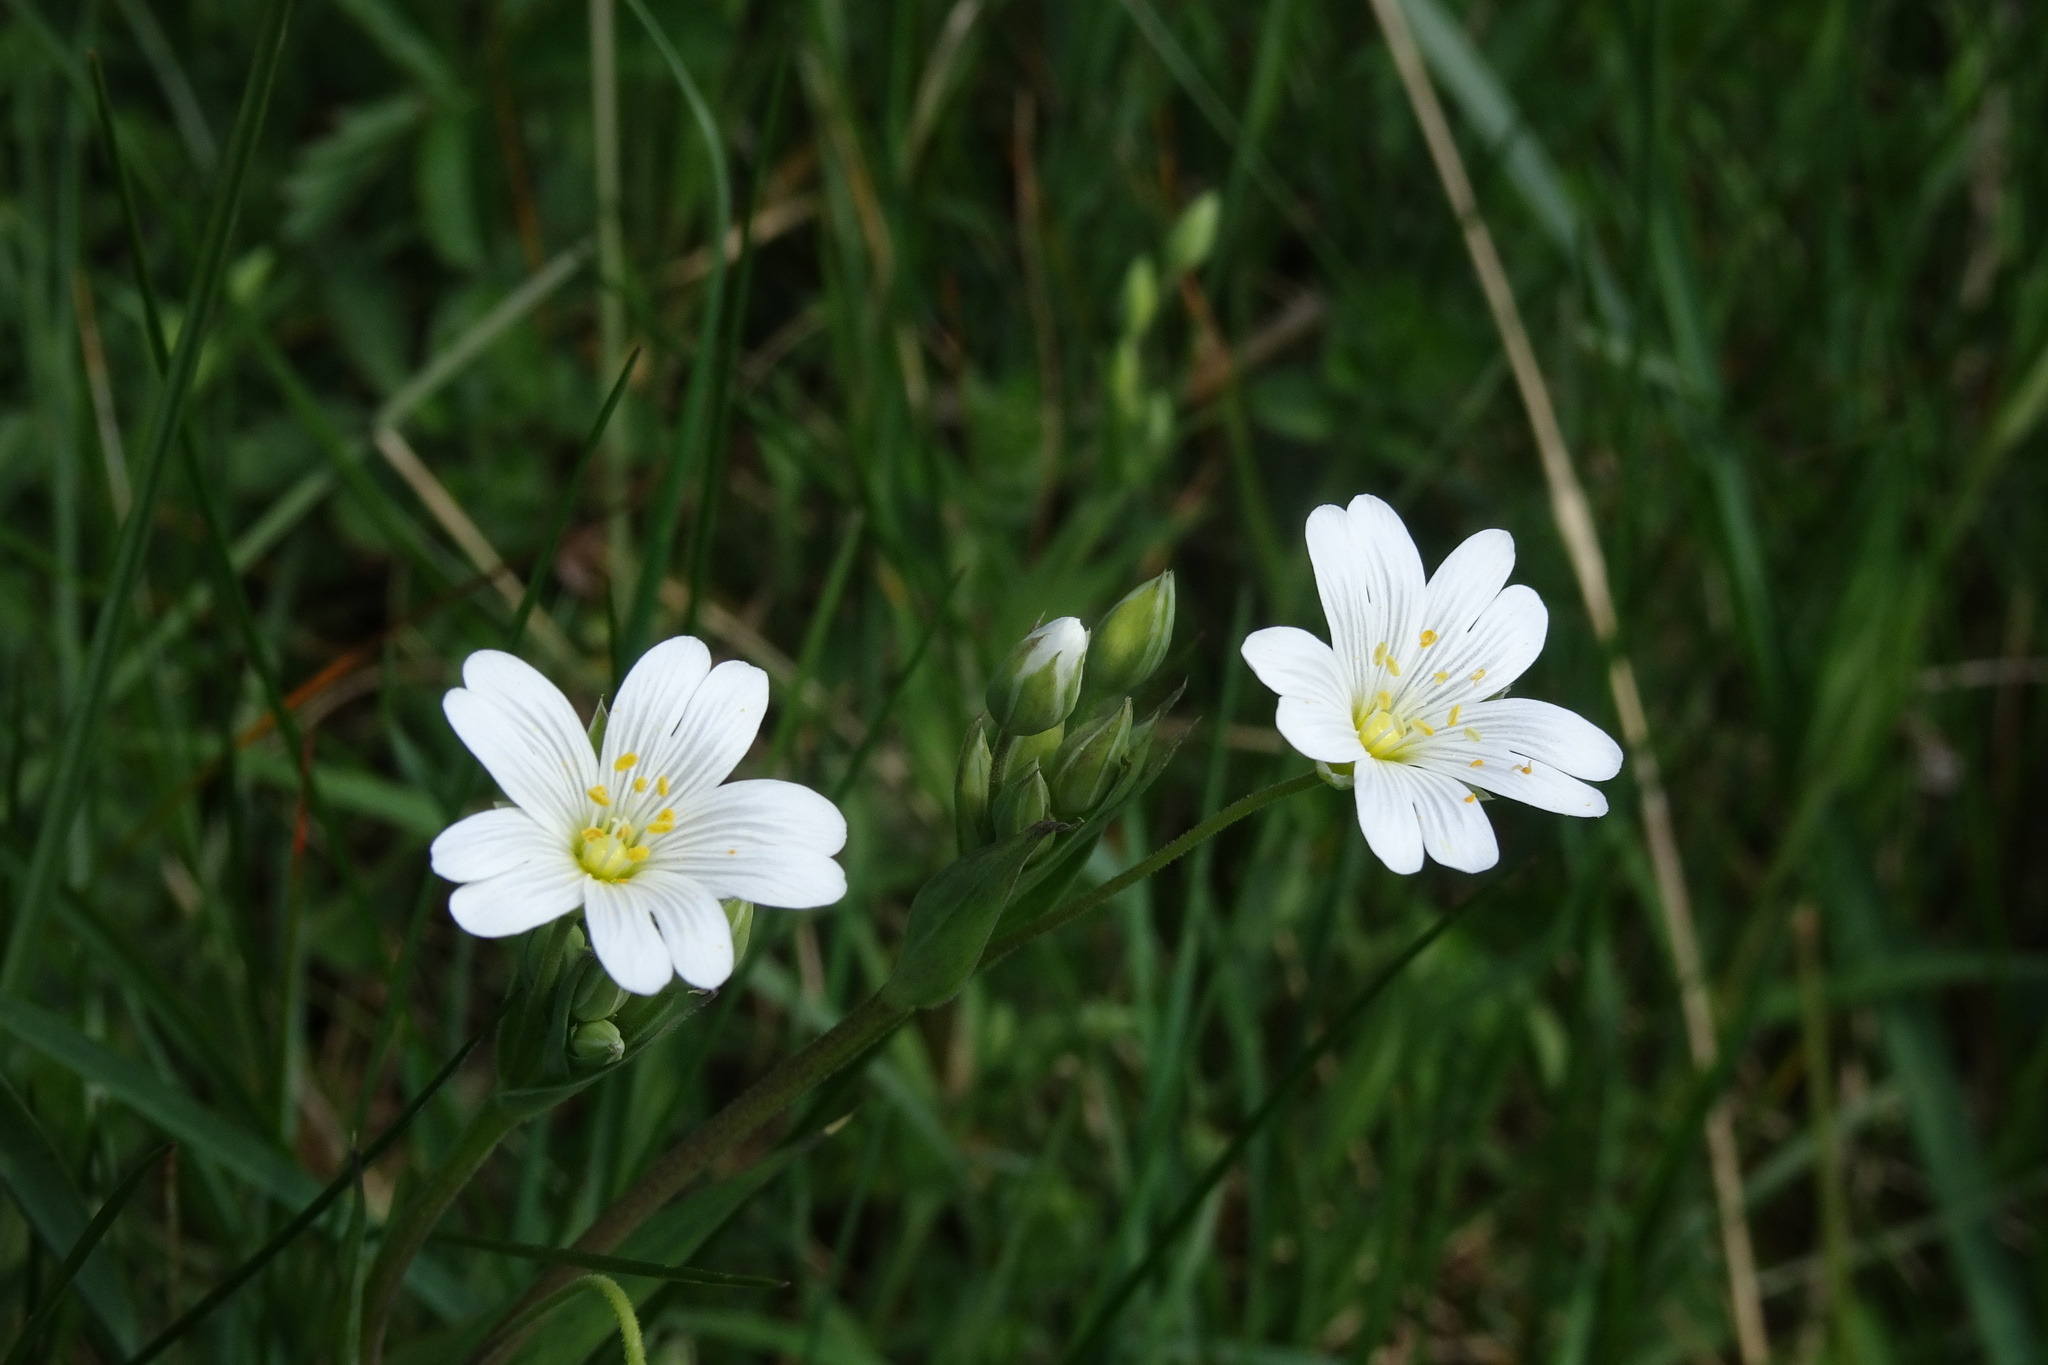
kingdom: Plantae
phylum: Tracheophyta
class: Magnoliopsida
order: Caryophyllales
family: Caryophyllaceae
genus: Rabelera
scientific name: Rabelera holostea
